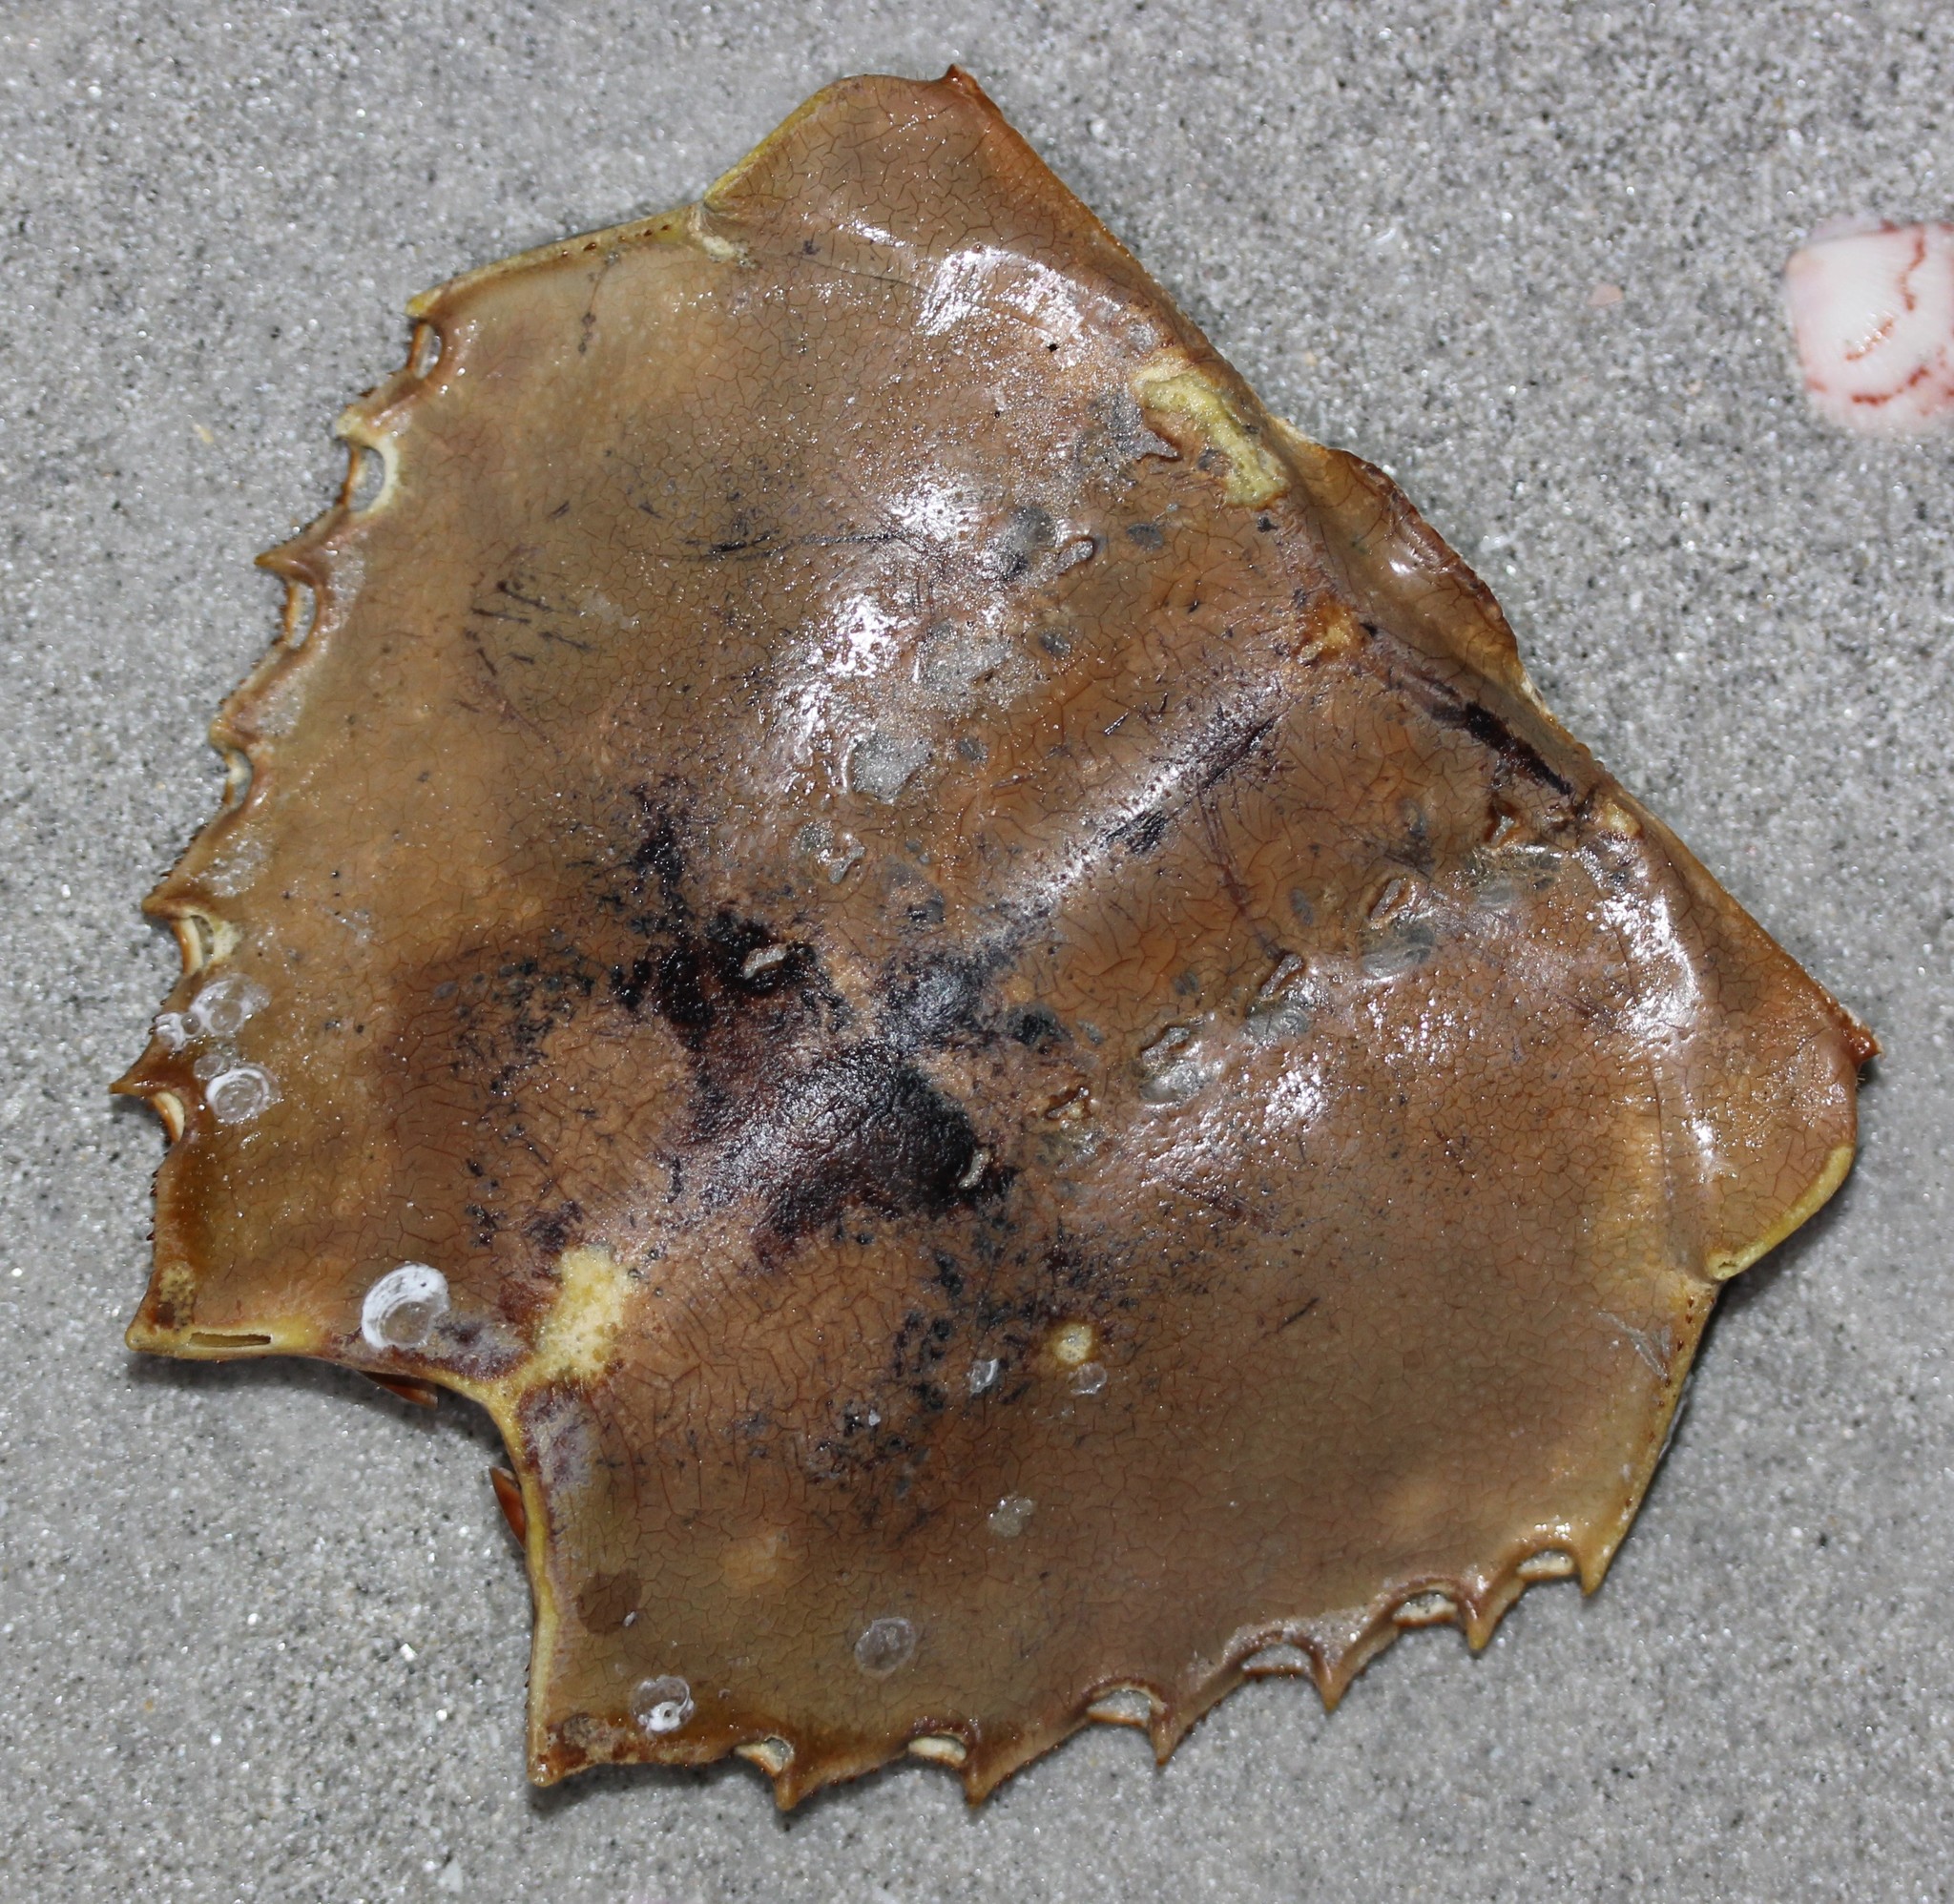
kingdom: Animalia
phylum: Arthropoda
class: Merostomata
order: Xiphosurida
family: Limulidae
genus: Limulus
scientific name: Limulus polyphemus
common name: Horseshoe crab
